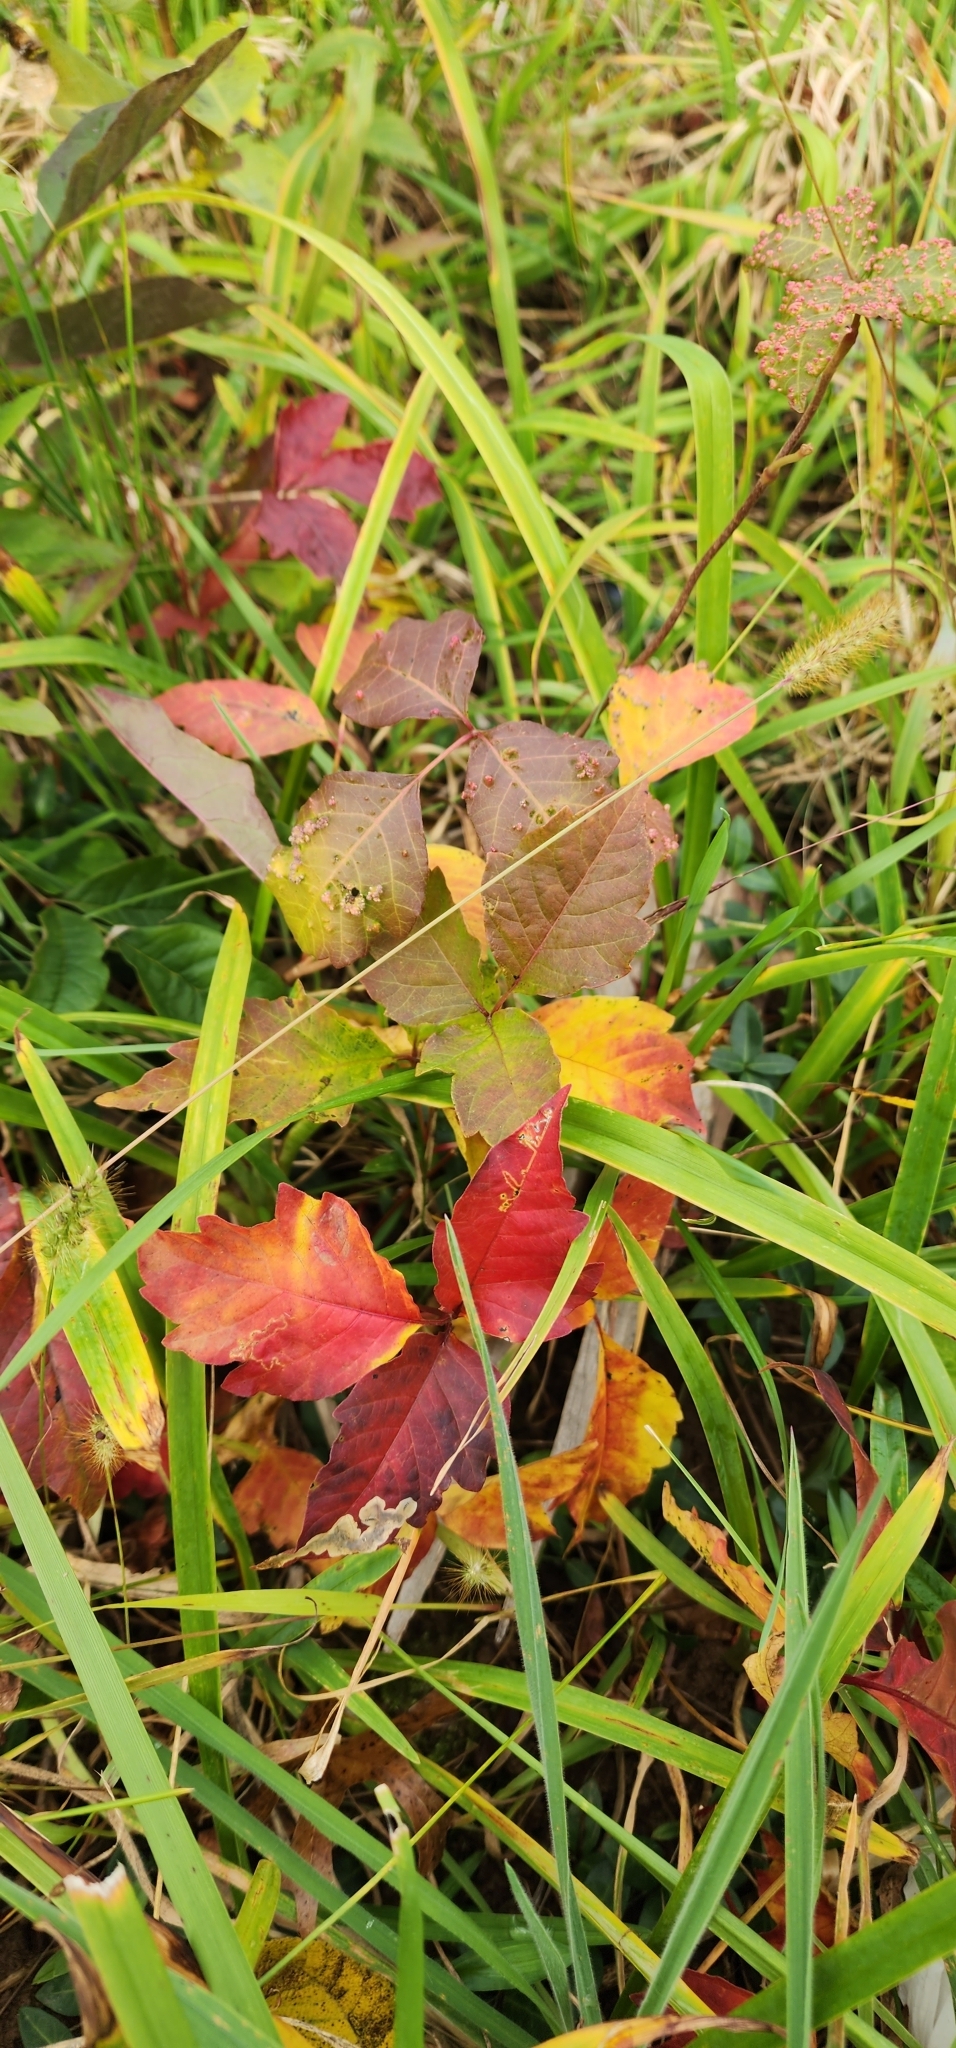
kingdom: Plantae
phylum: Tracheophyta
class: Magnoliopsida
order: Sapindales
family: Anacardiaceae
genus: Toxicodendron
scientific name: Toxicodendron radicans
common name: Poison ivy
